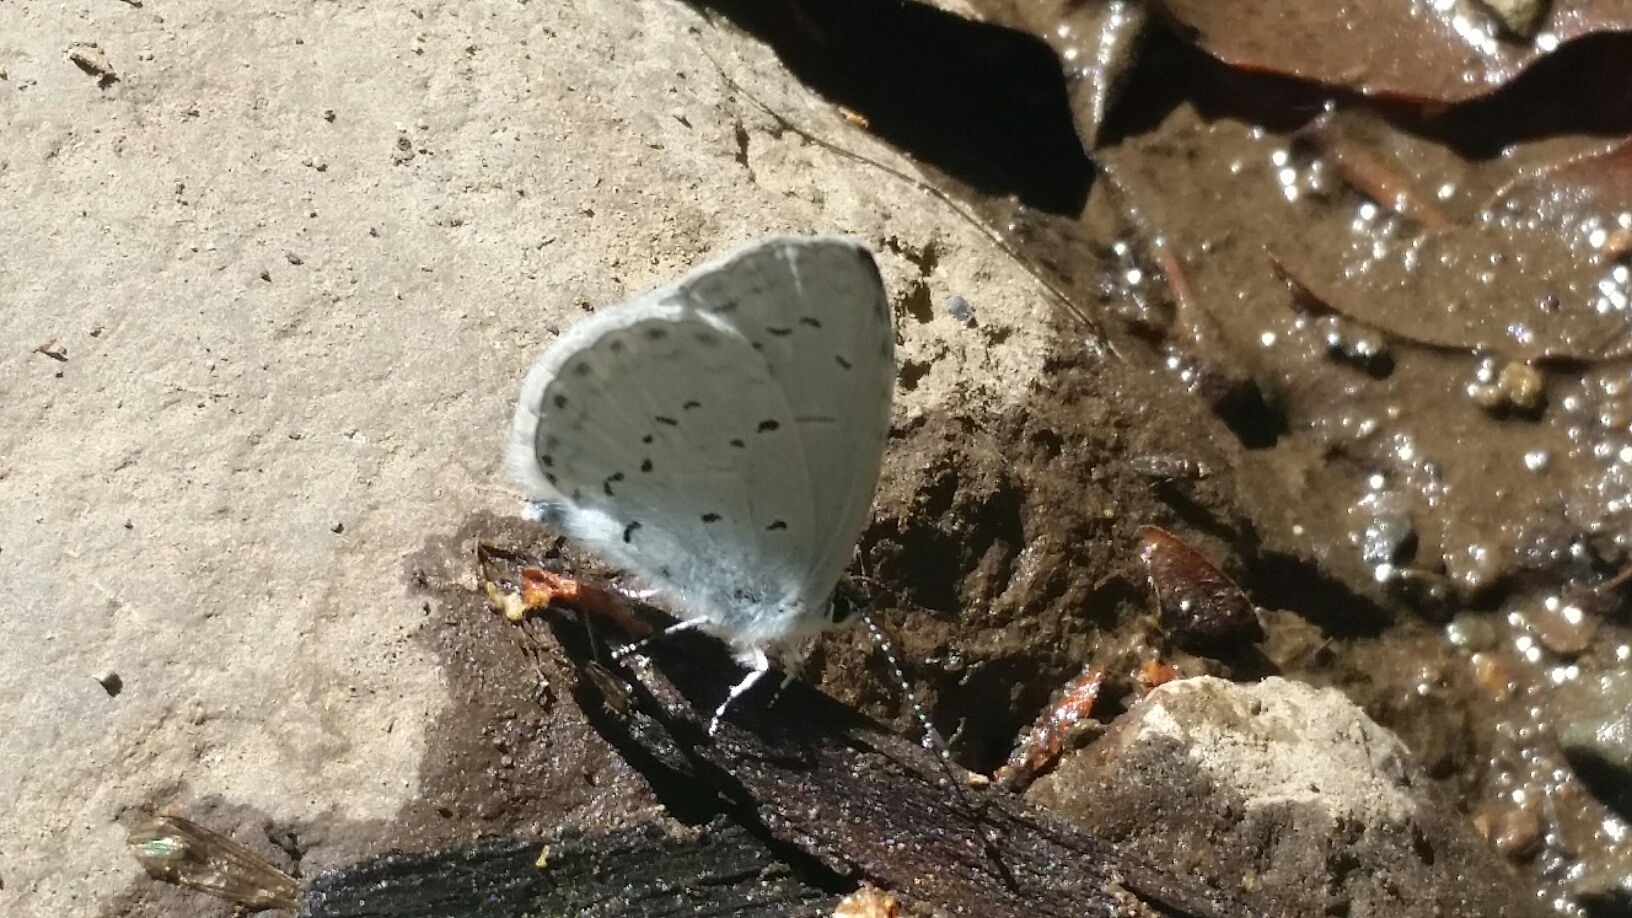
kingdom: Animalia
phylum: Arthropoda
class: Insecta
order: Lepidoptera
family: Lycaenidae
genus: Celastrina
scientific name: Celastrina ladon
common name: Spring azure
